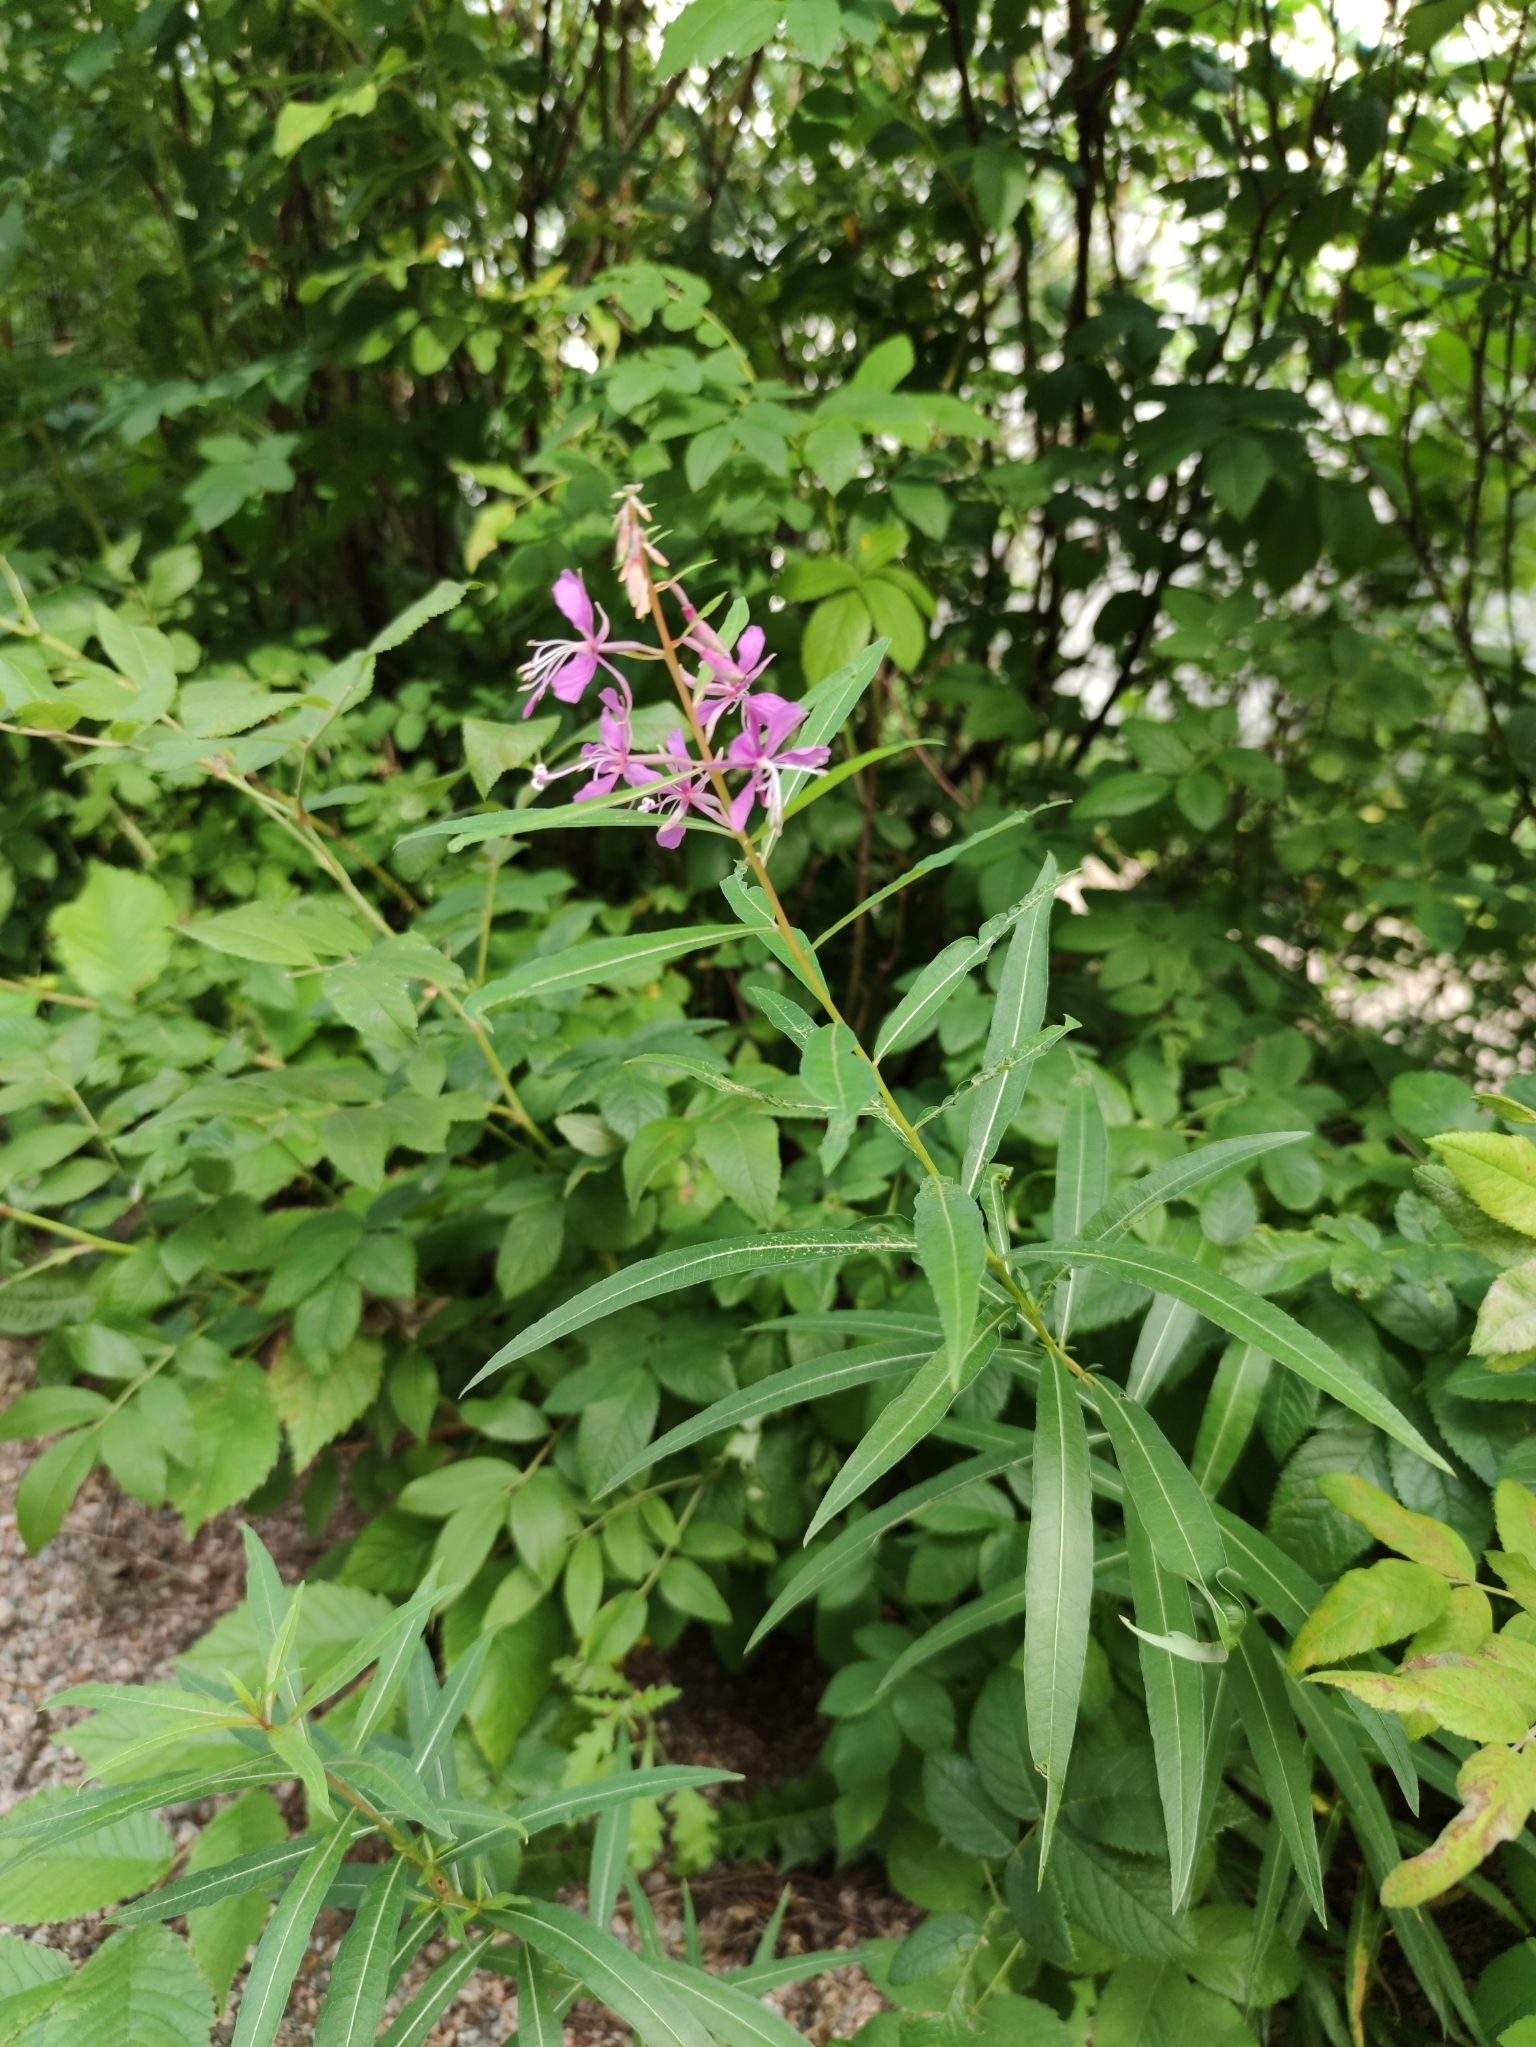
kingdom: Plantae
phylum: Tracheophyta
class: Magnoliopsida
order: Myrtales
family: Onagraceae
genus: Chamaenerion
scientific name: Chamaenerion angustifolium
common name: Fireweed
